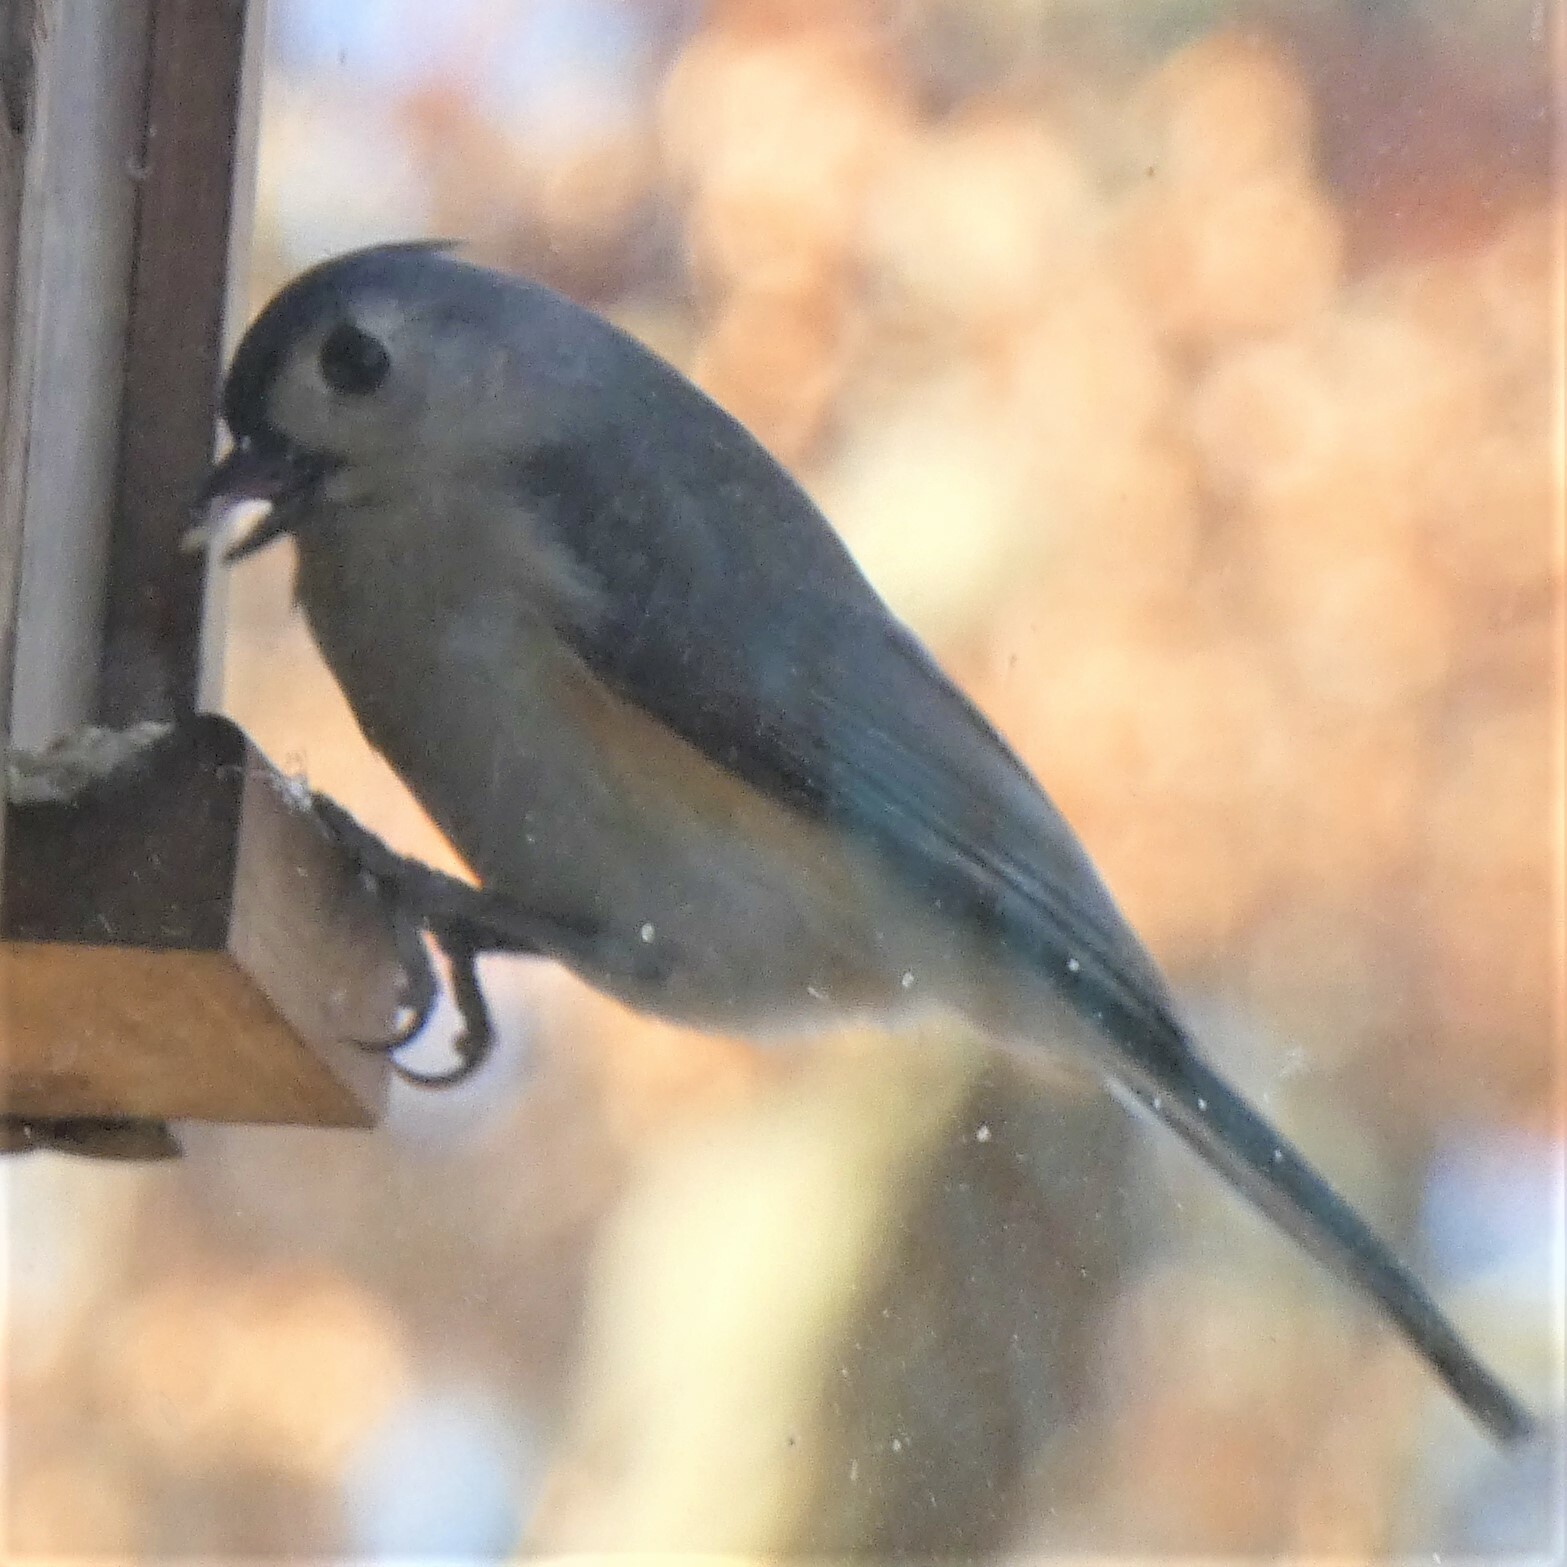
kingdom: Animalia
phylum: Chordata
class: Aves
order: Passeriformes
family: Paridae
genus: Baeolophus
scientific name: Baeolophus bicolor
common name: Tufted titmouse
